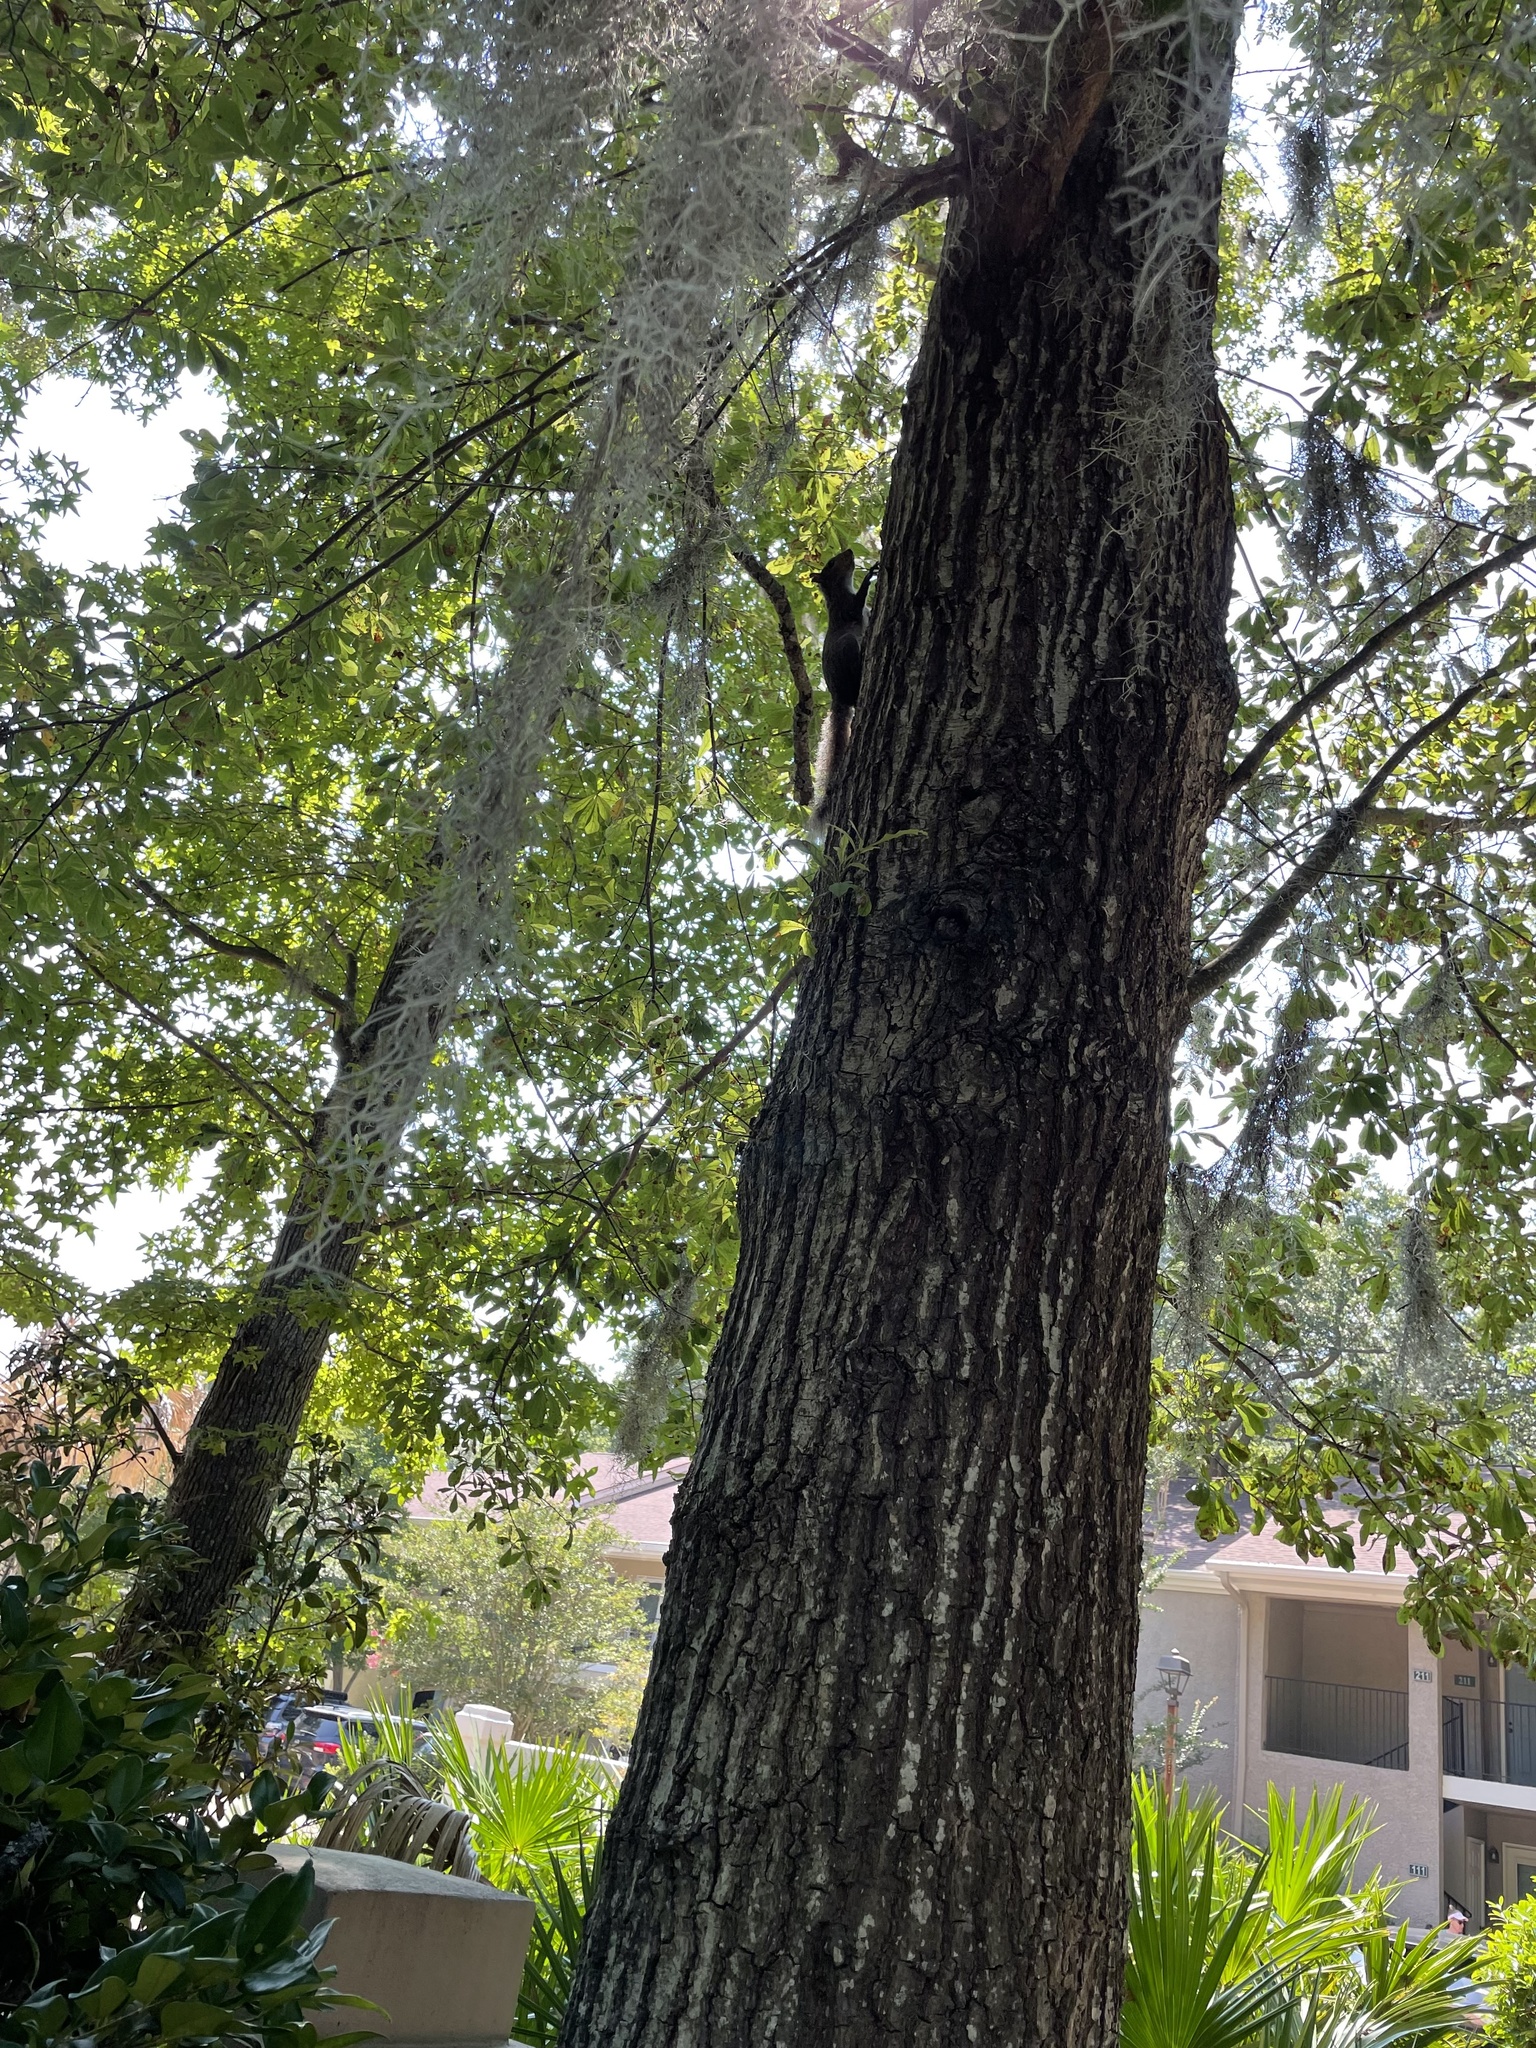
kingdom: Animalia
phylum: Chordata
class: Mammalia
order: Rodentia
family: Sciuridae
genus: Sciurus
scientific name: Sciurus carolinensis
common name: Eastern gray squirrel
